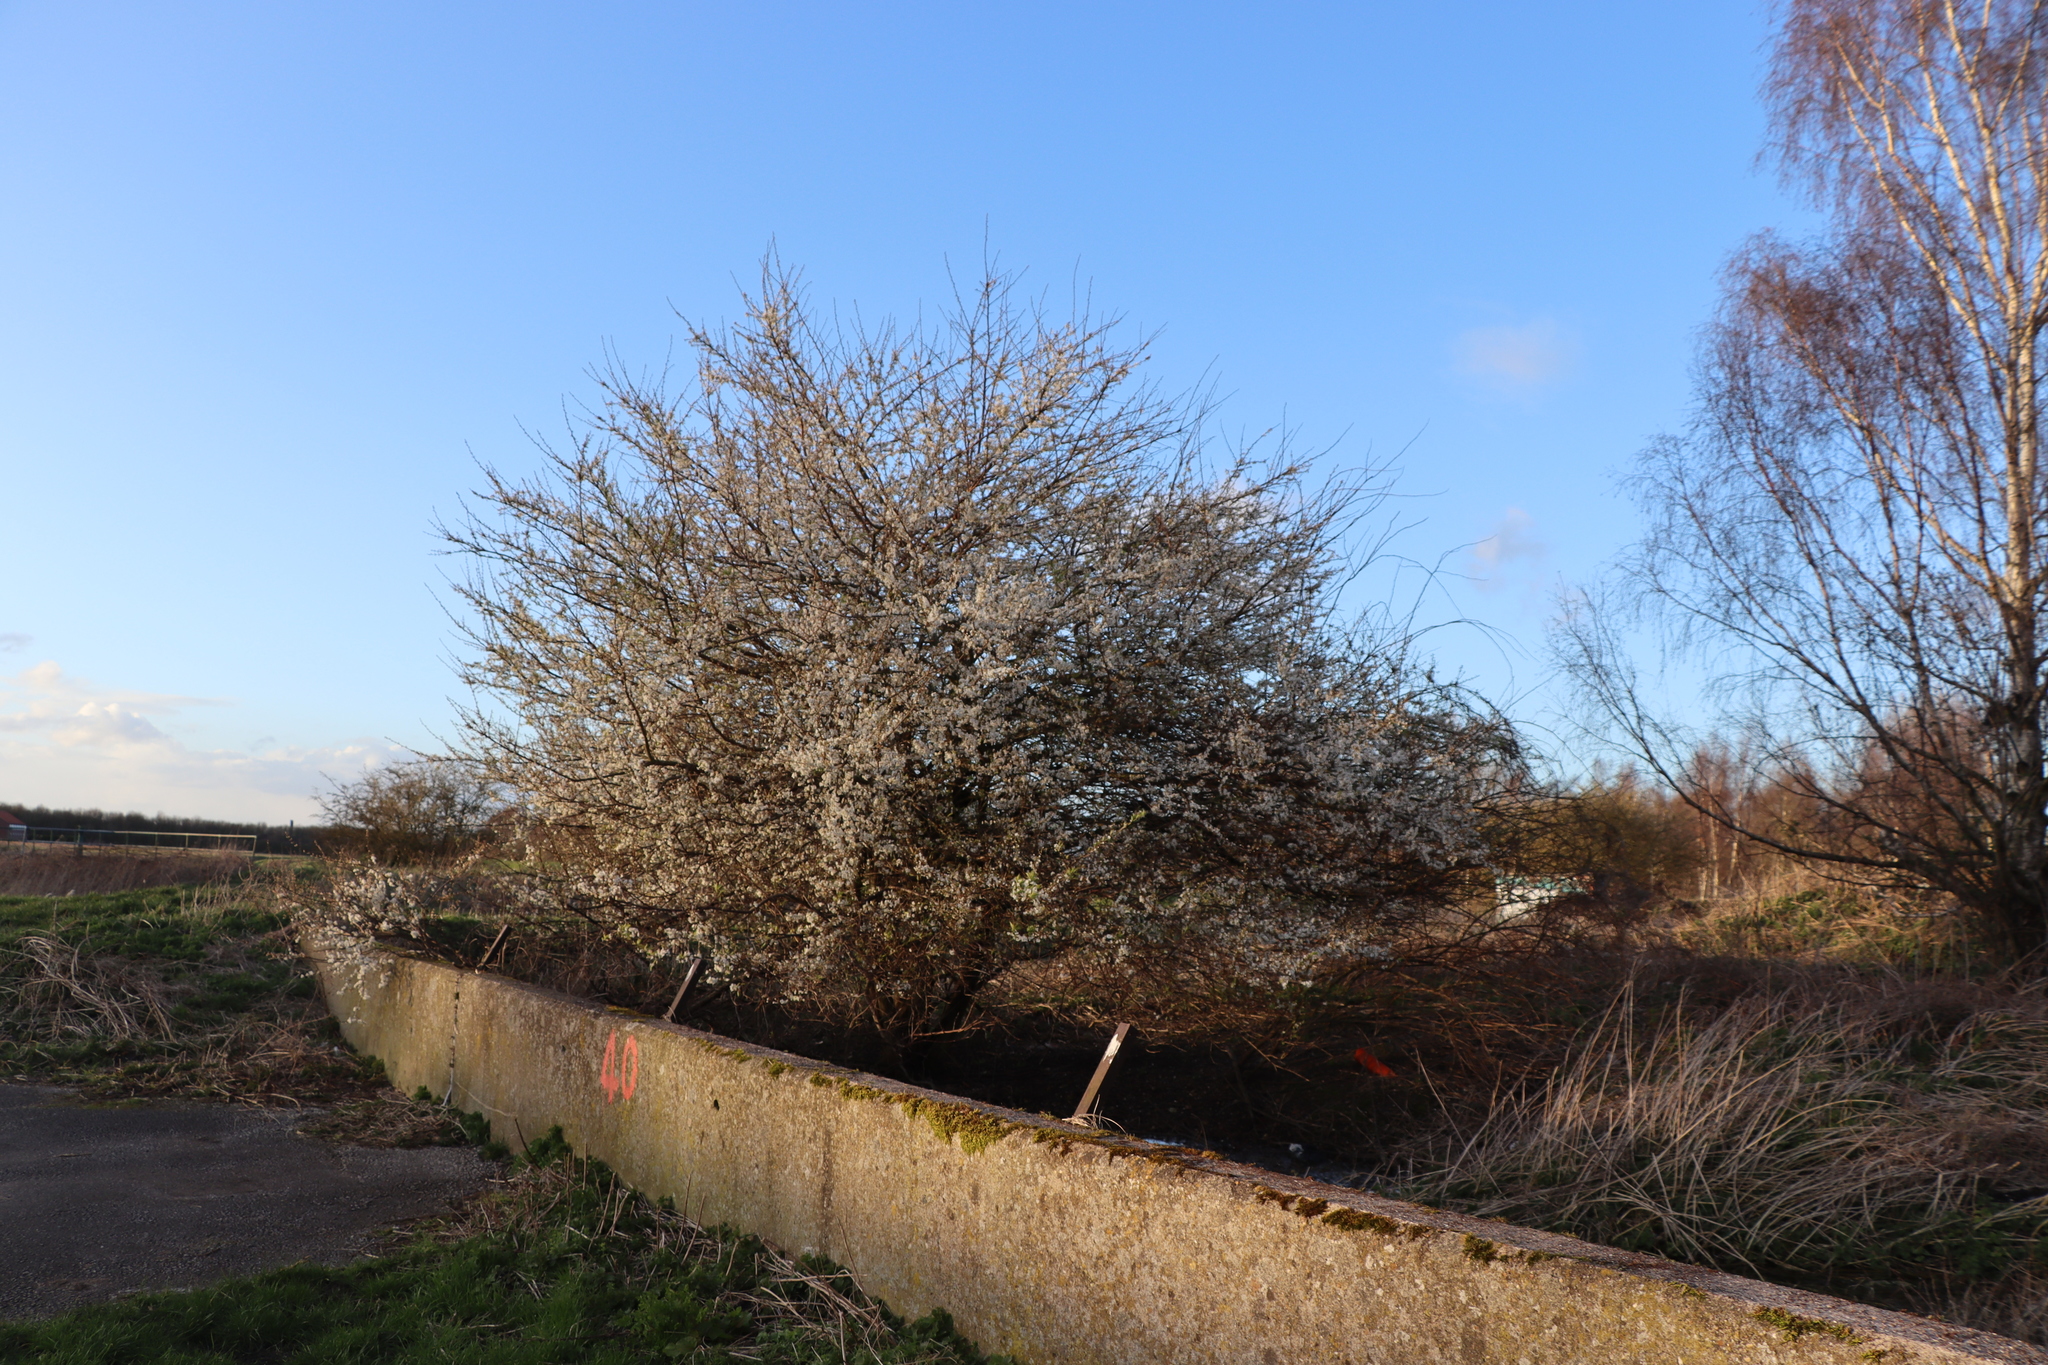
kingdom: Plantae
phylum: Tracheophyta
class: Magnoliopsida
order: Rosales
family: Rosaceae
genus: Prunus
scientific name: Prunus spinosa
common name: Blackthorn
